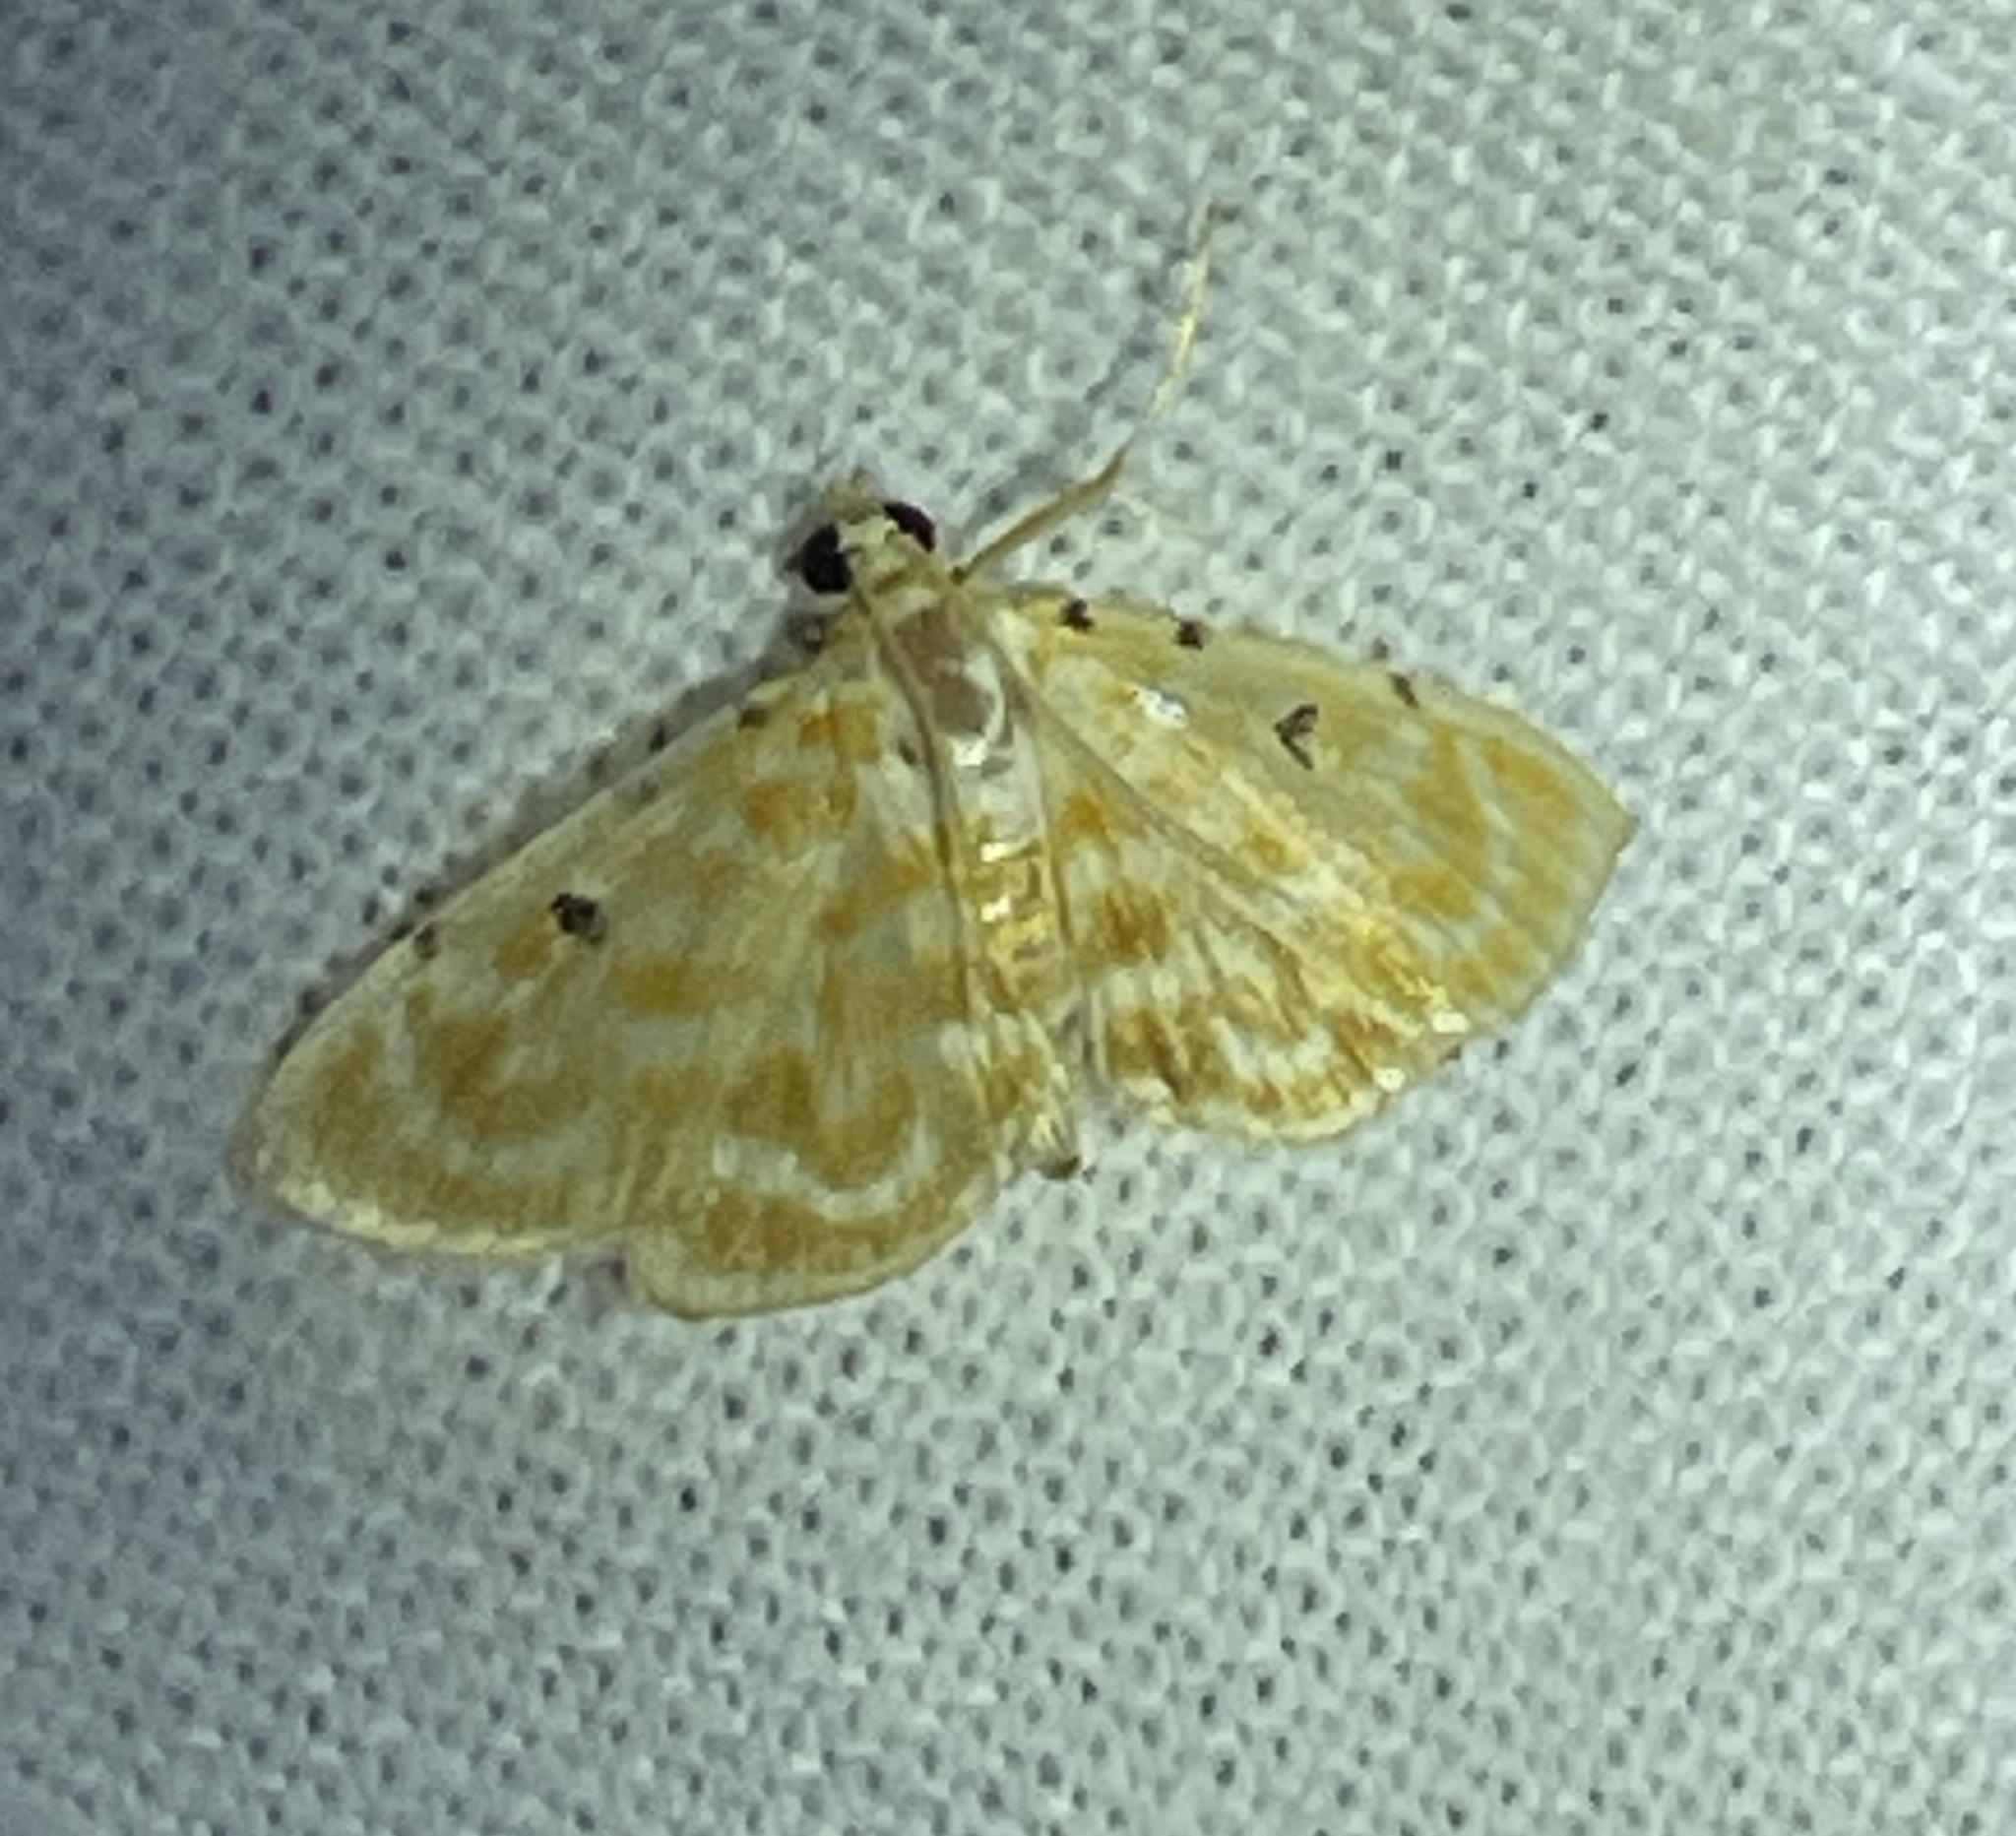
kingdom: Animalia
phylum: Arthropoda
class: Insecta
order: Lepidoptera
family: Crambidae
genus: Notarcha
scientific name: Notarcha aurolinealis
